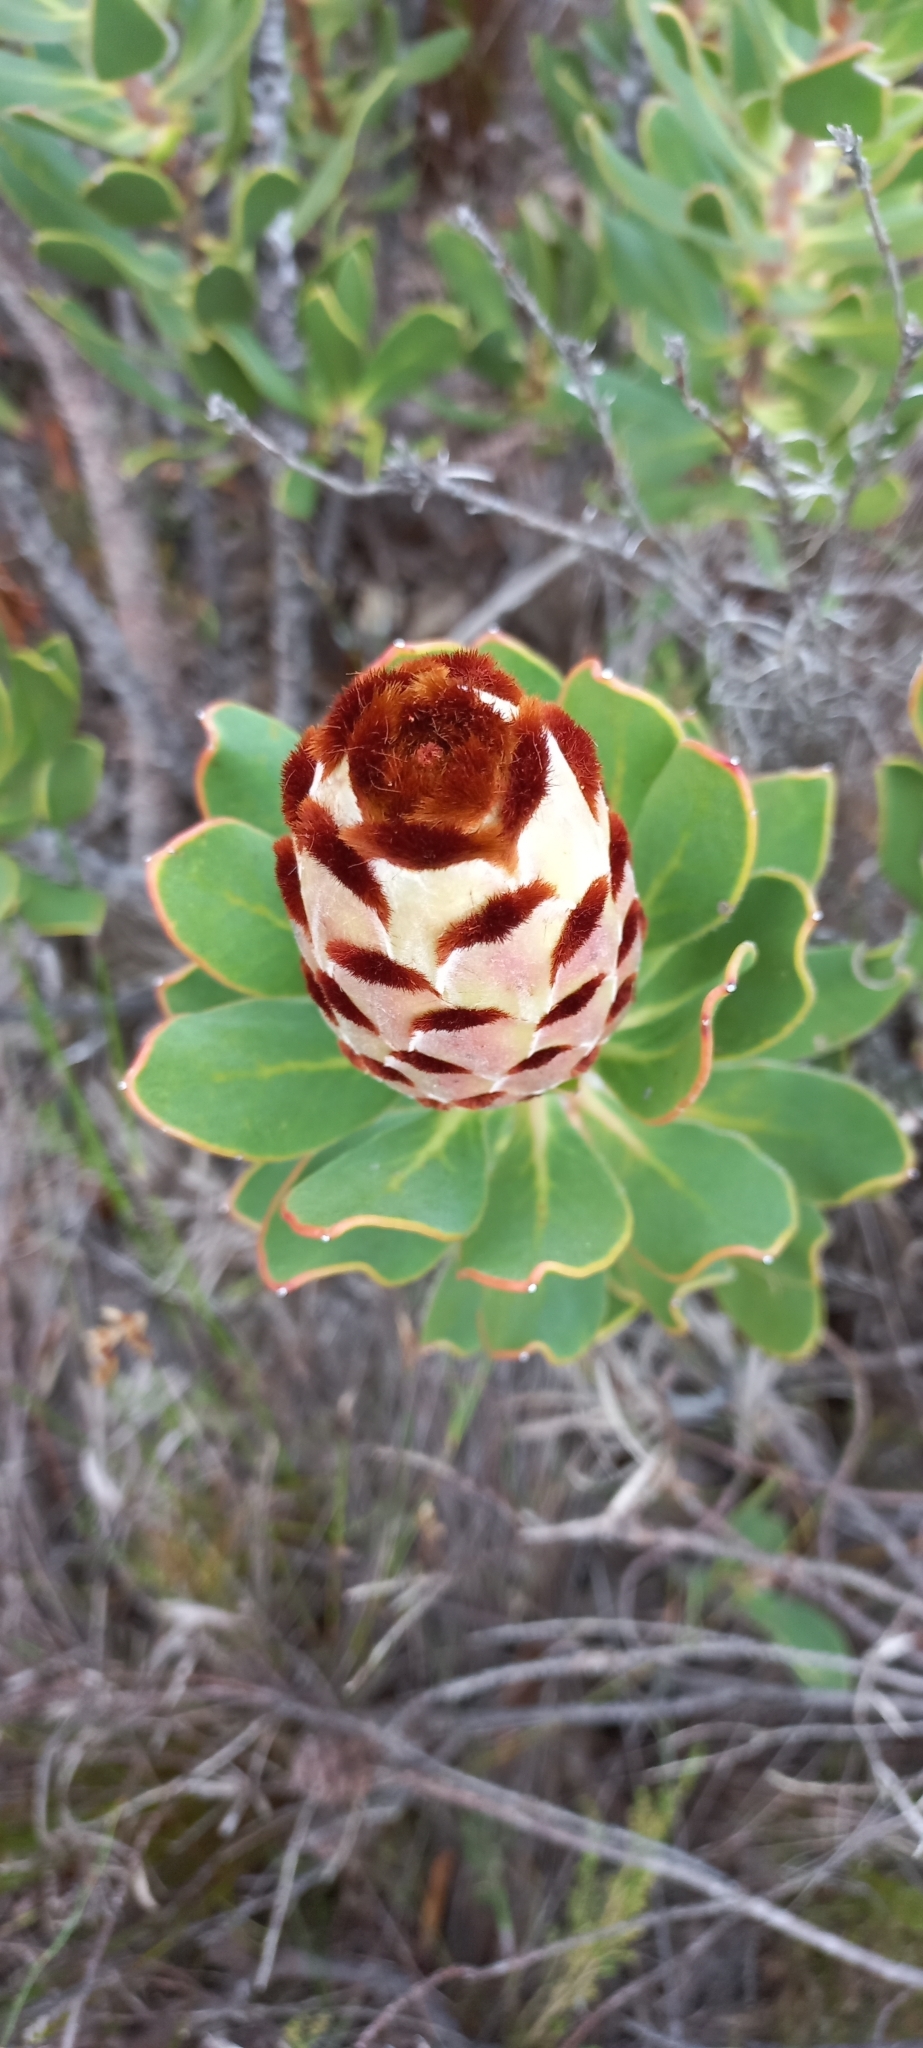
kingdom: Plantae
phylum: Tracheophyta
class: Magnoliopsida
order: Proteales
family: Proteaceae
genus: Protea
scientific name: Protea speciosa
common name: Brown-beard sugarbush
